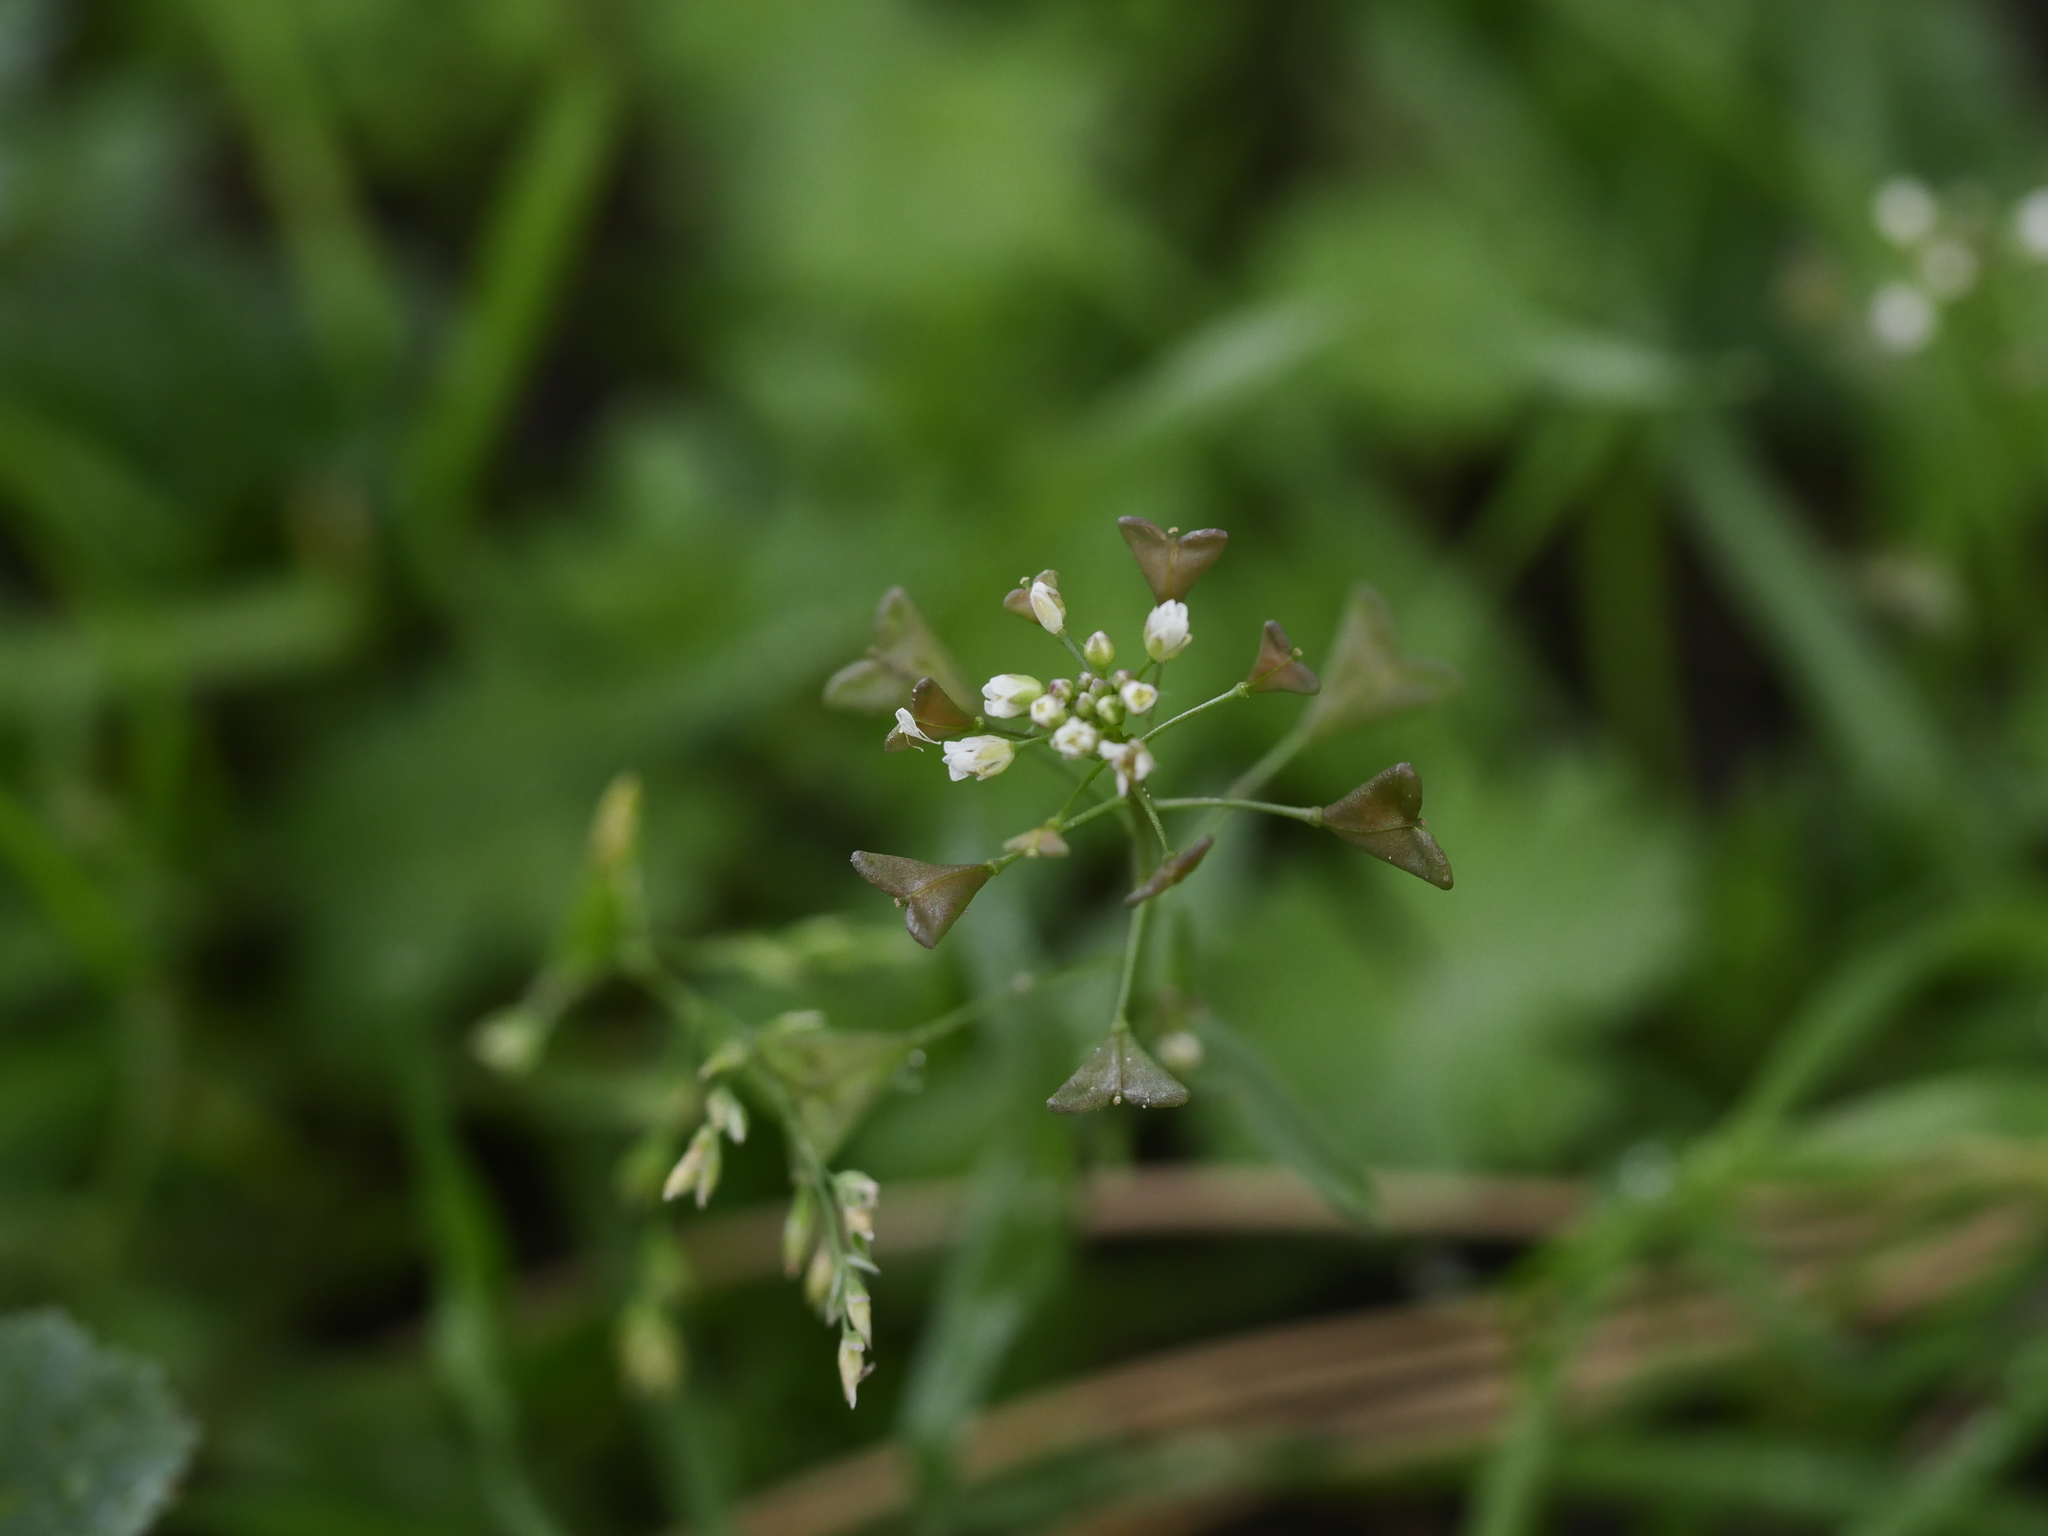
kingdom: Plantae
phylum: Tracheophyta
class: Magnoliopsida
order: Brassicales
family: Brassicaceae
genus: Capsella
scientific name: Capsella bursa-pastoris
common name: Shepherd's purse
